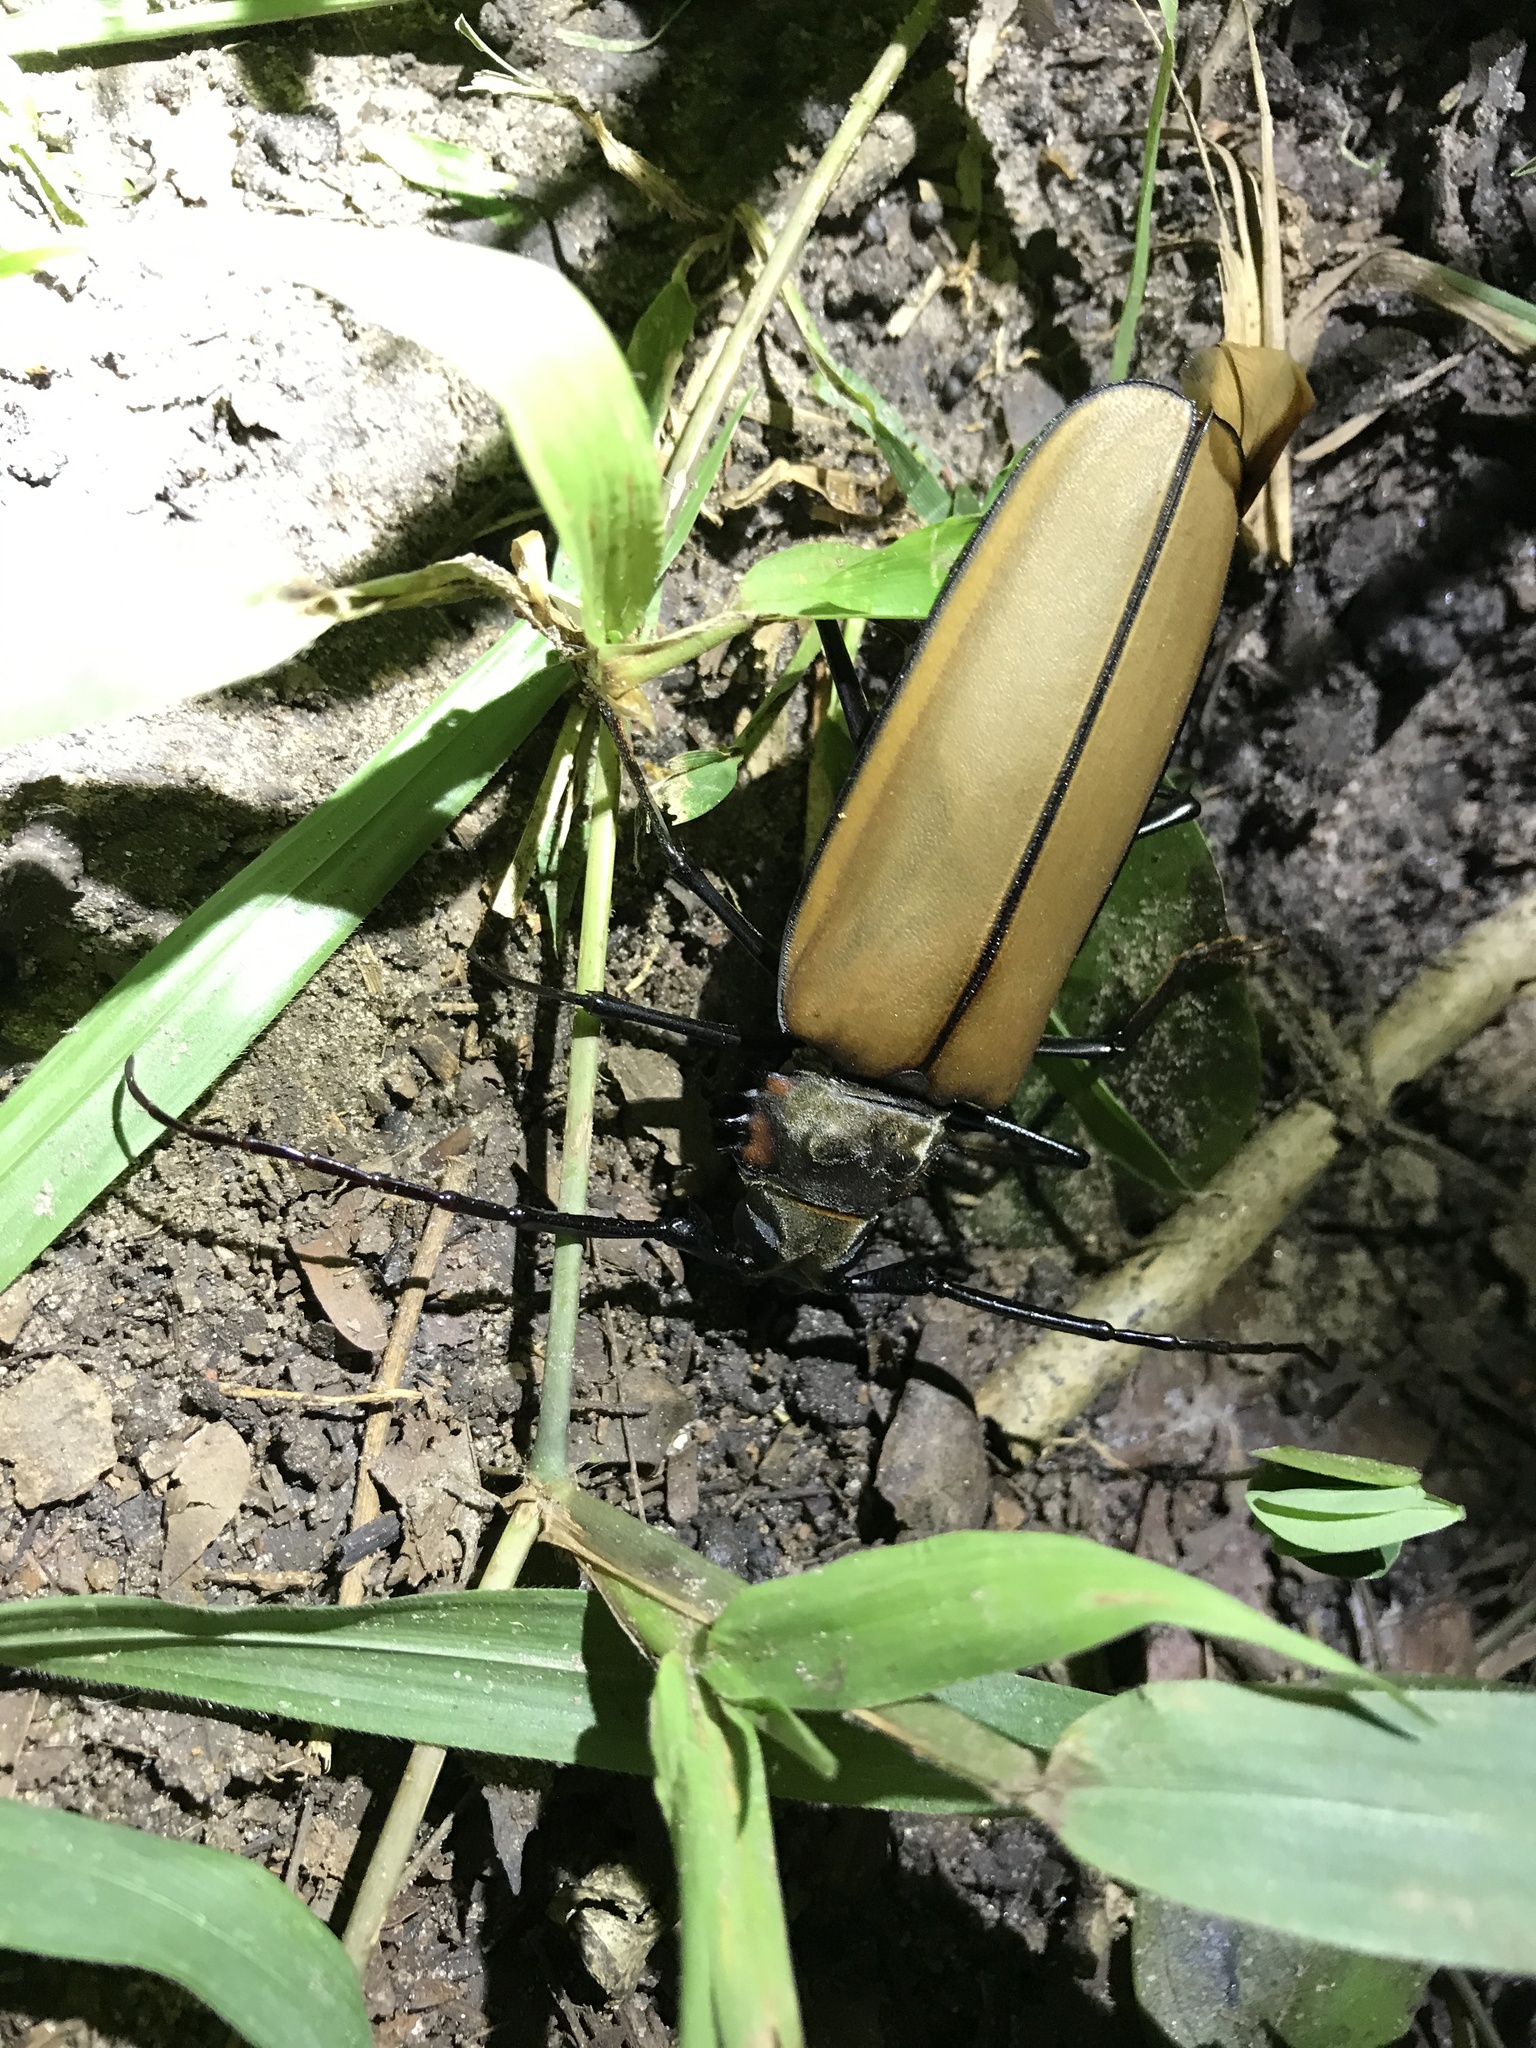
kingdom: Animalia
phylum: Arthropoda
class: Insecta
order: Coleoptera
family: Cerambycidae
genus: Enoplocerus
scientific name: Enoplocerus armillatus
